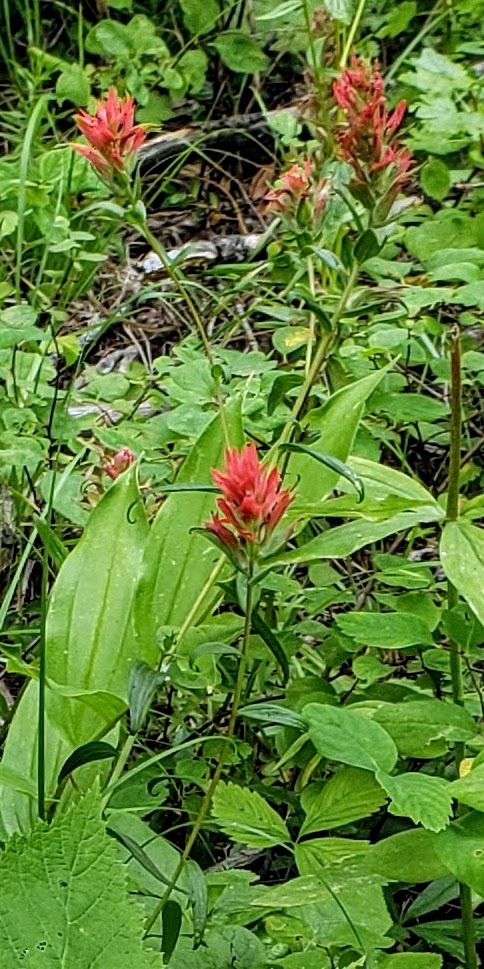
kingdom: Plantae
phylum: Tracheophyta
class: Magnoliopsida
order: Lamiales
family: Orobanchaceae
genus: Castilleja
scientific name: Castilleja miniata
